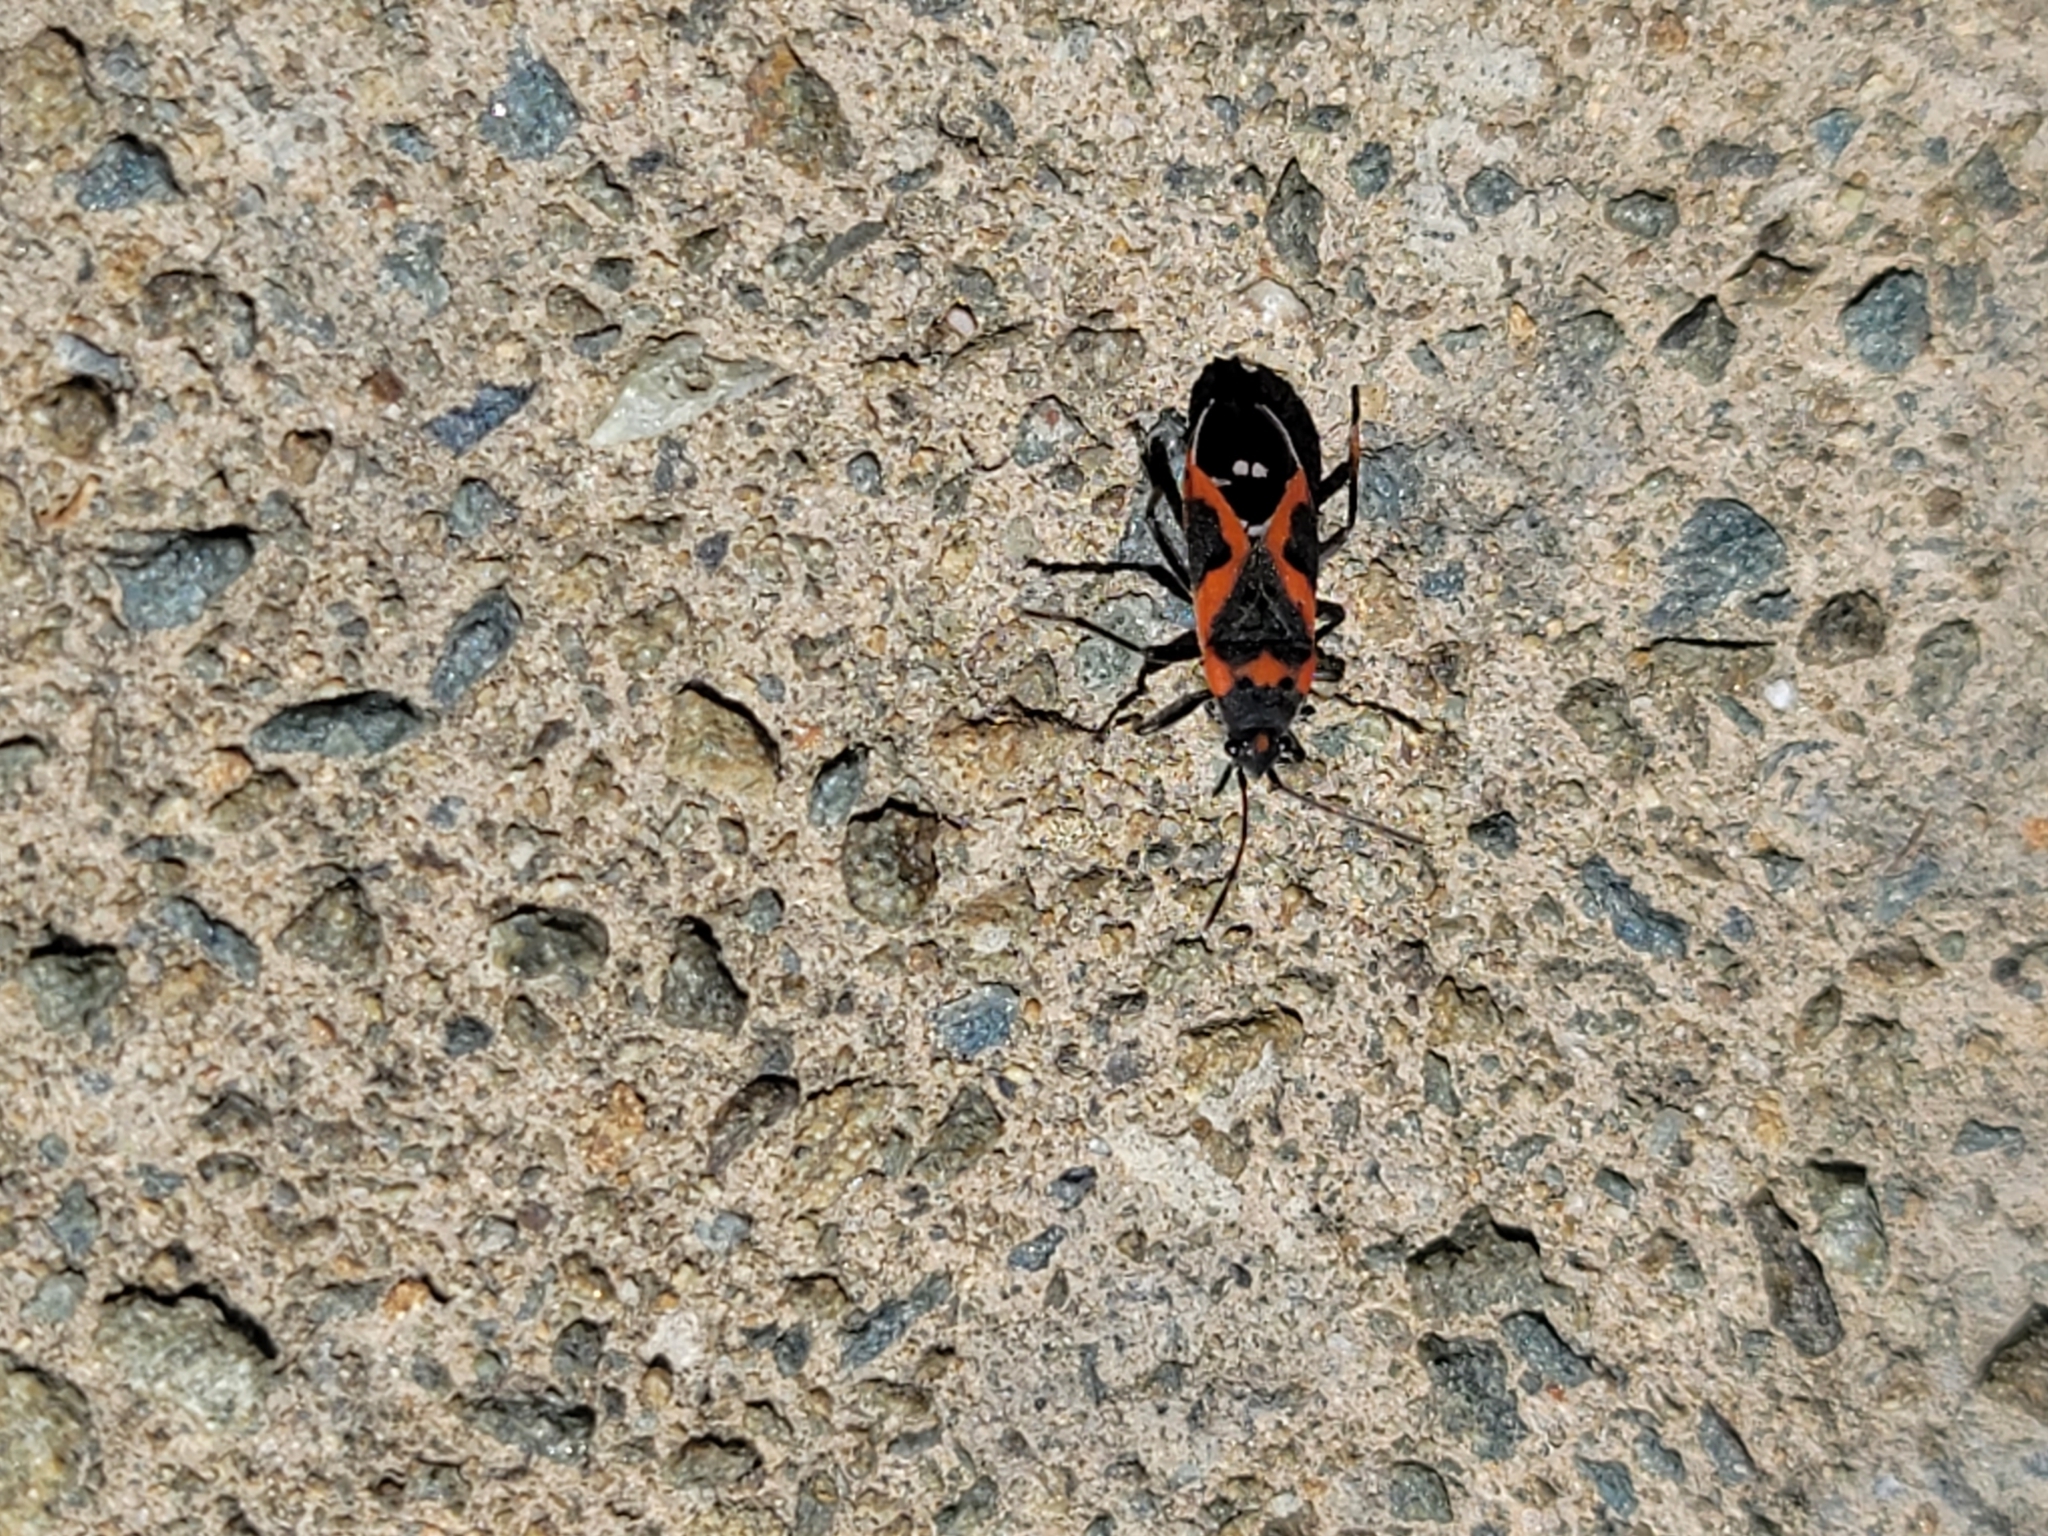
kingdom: Animalia
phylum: Arthropoda
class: Insecta
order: Hemiptera
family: Lygaeidae
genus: Lygaeus
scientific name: Lygaeus kalmii
